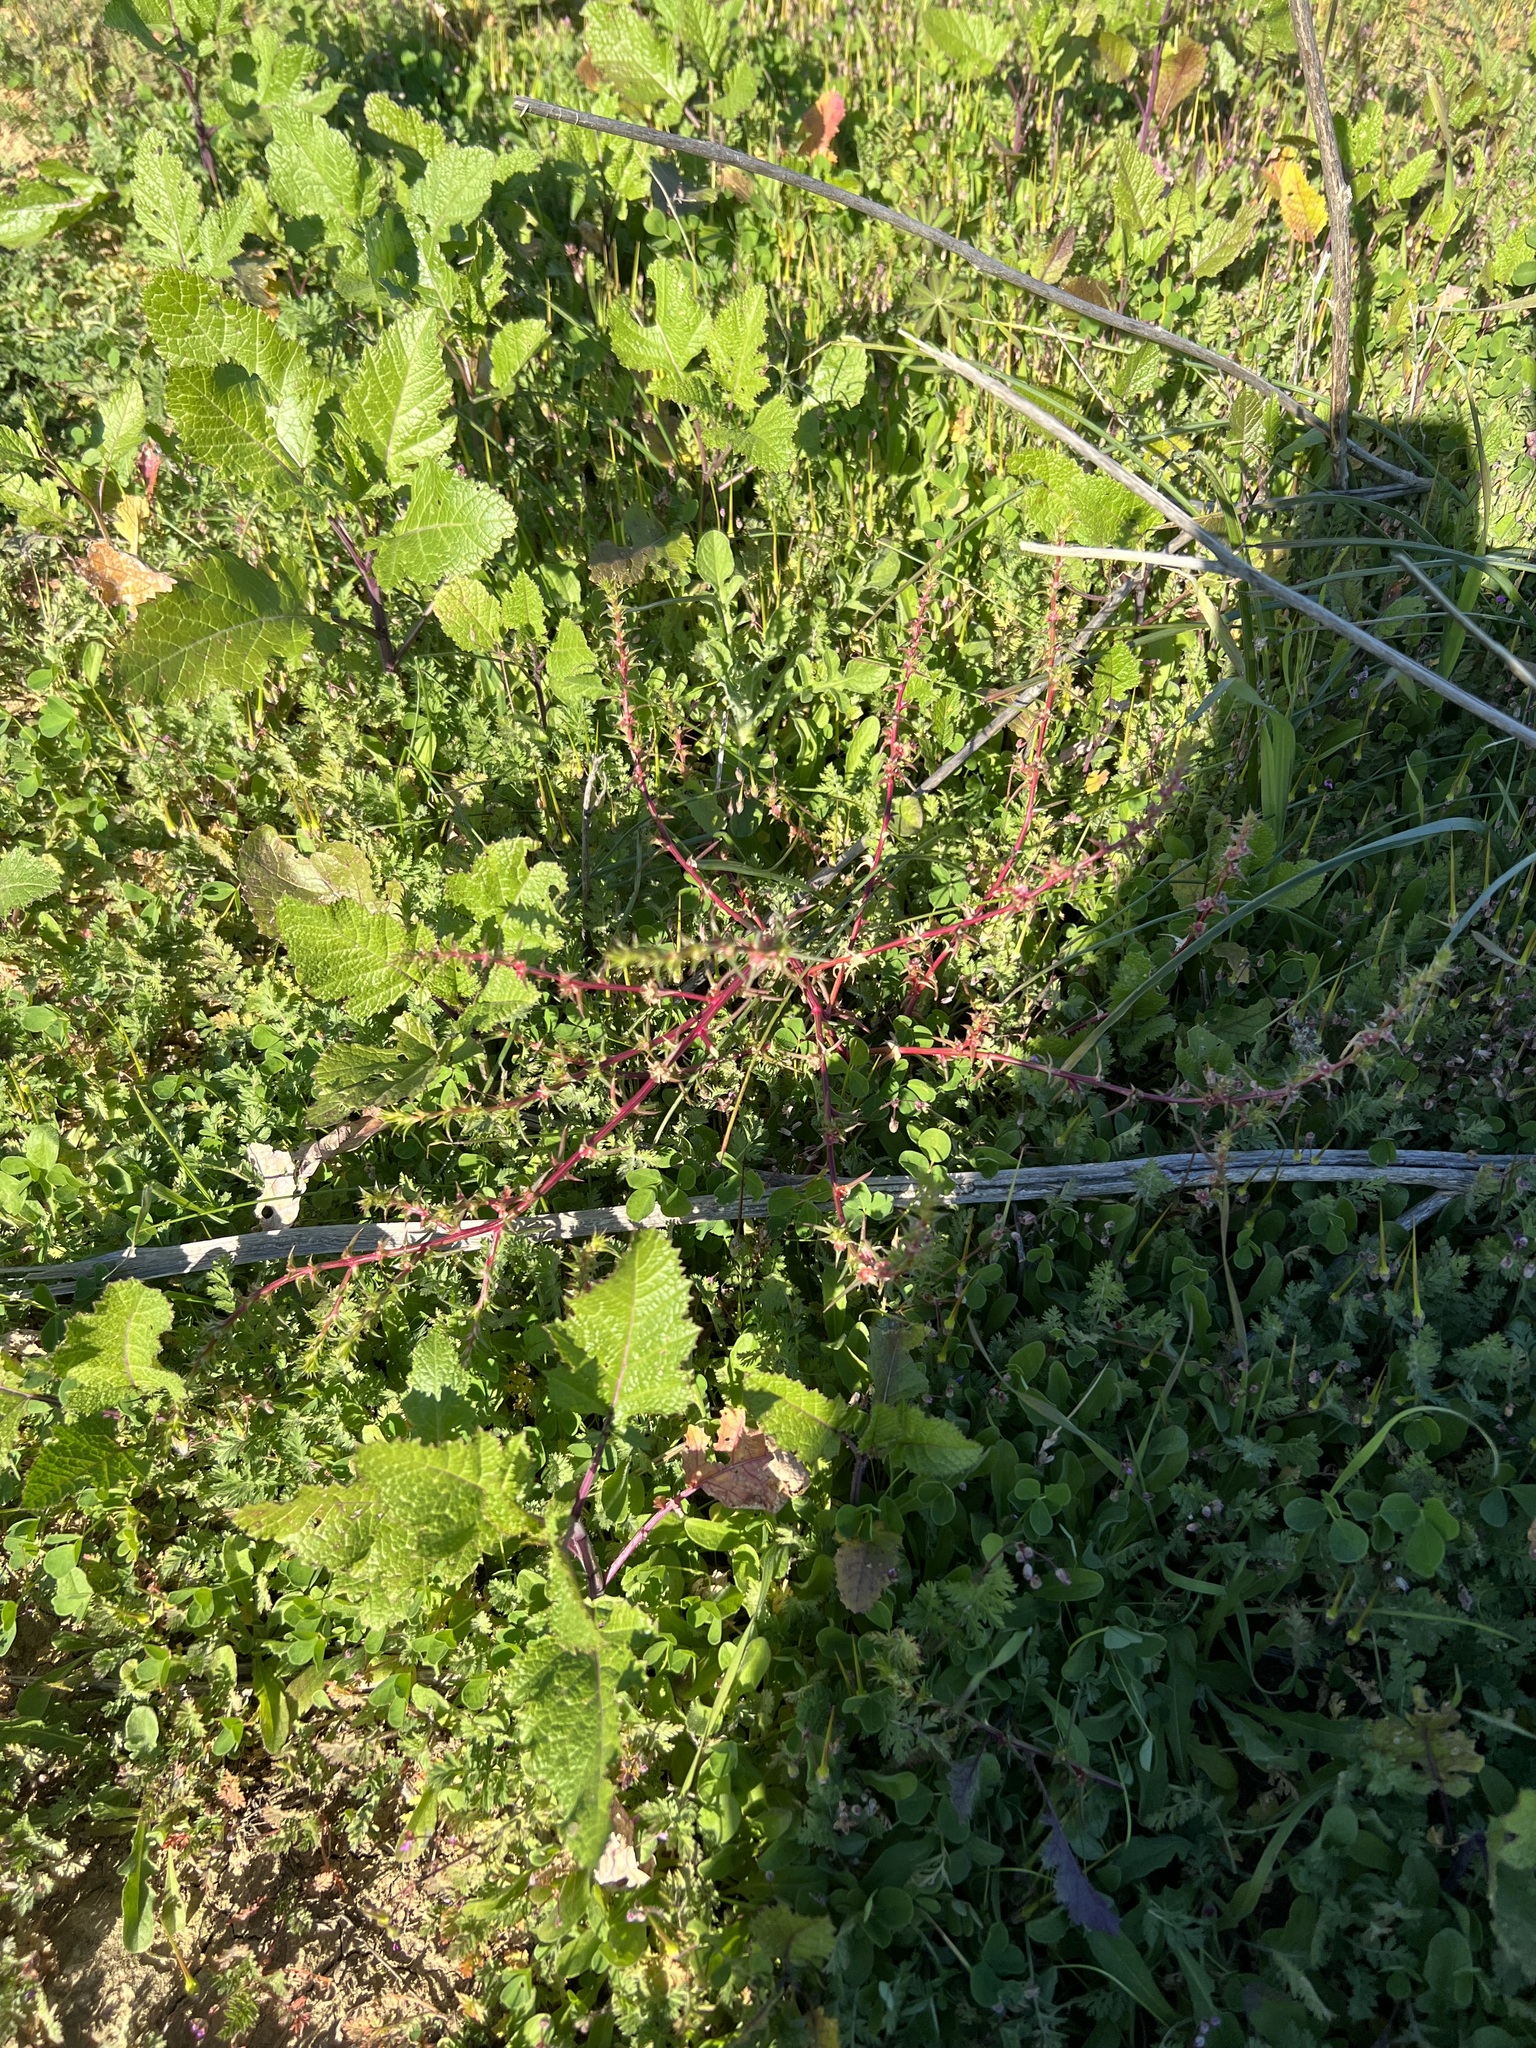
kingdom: Plantae
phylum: Tracheophyta
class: Magnoliopsida
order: Caryophyllales
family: Amaranthaceae
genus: Salsola
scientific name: Salsola australis
